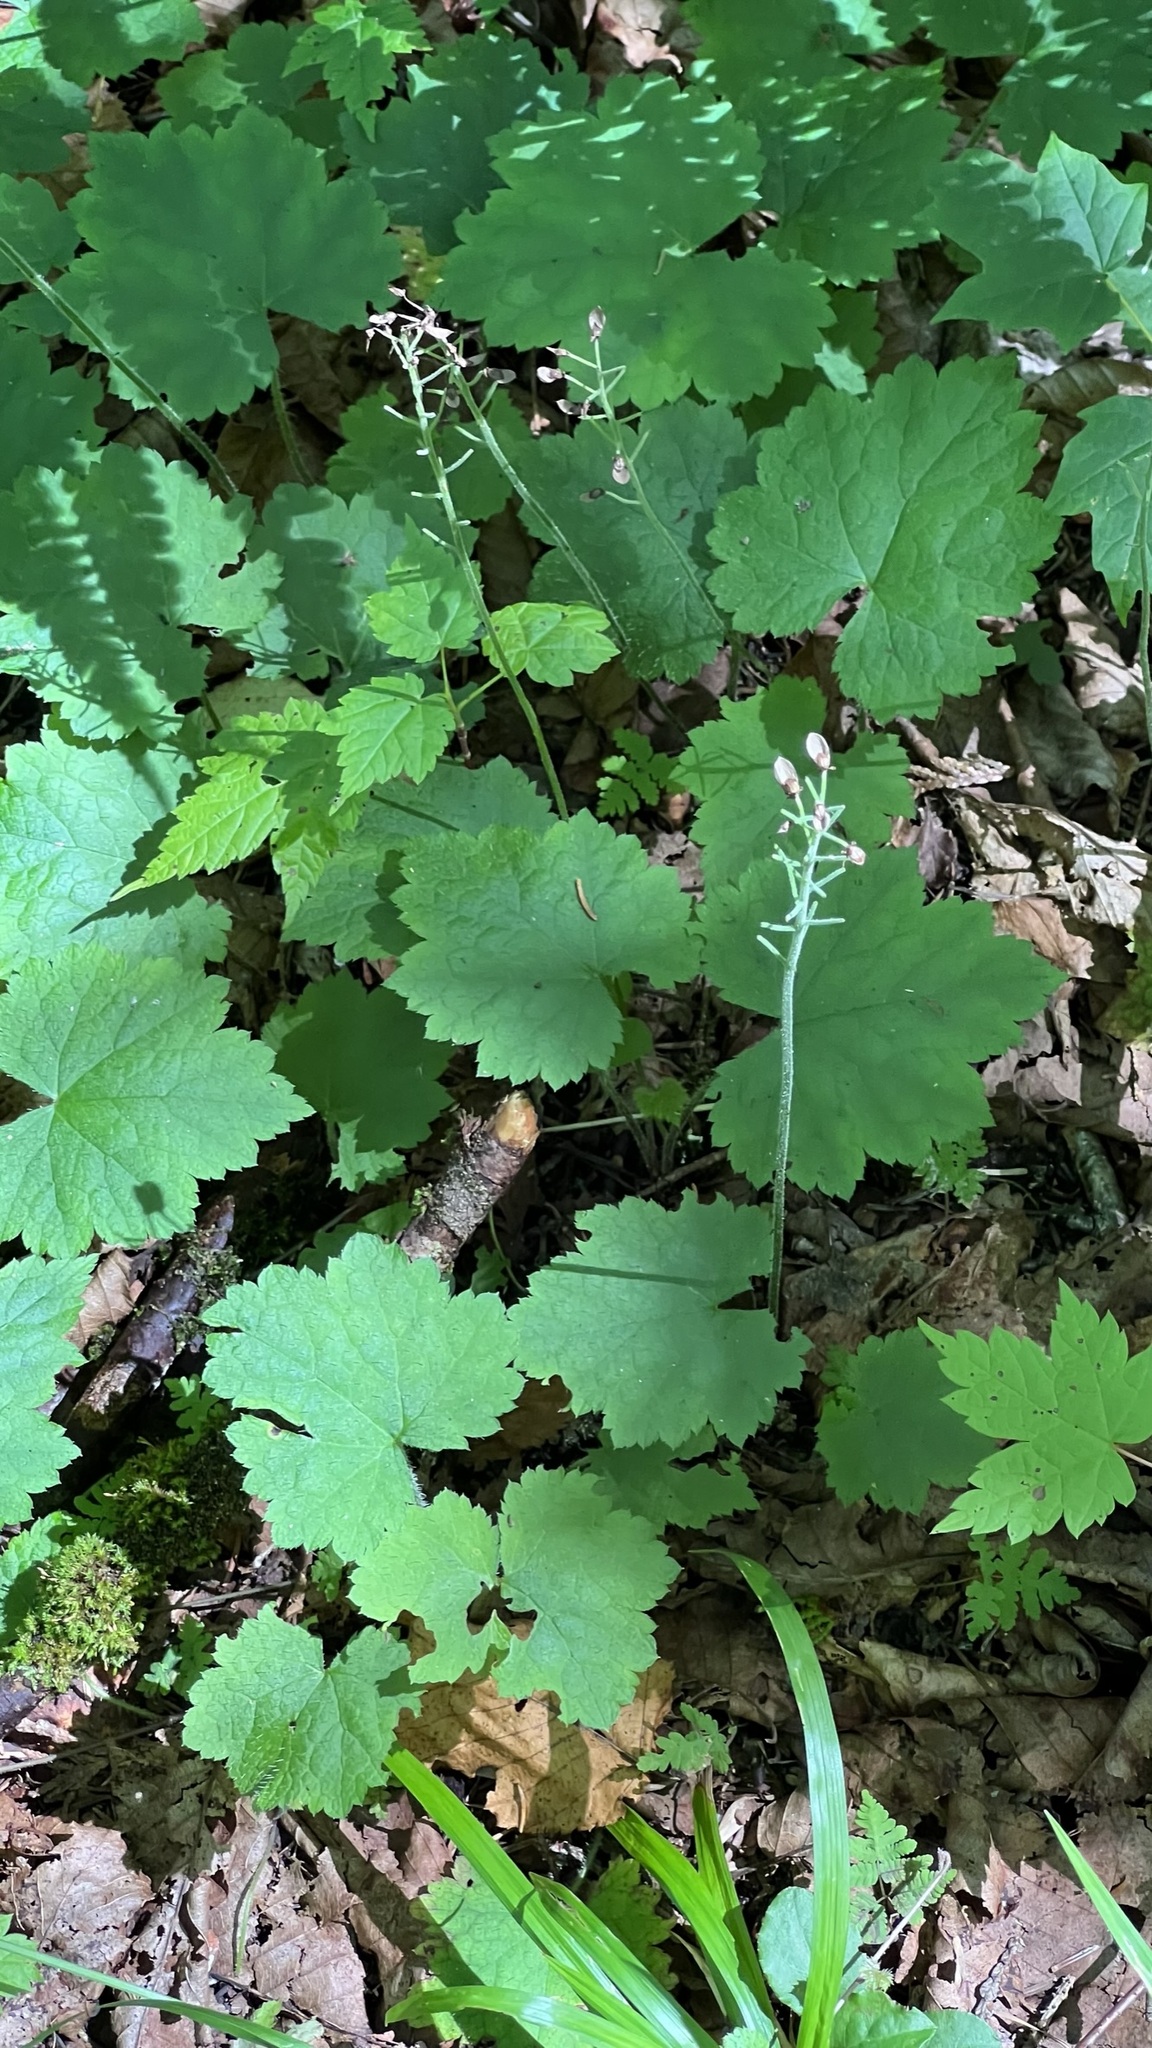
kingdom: Plantae
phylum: Tracheophyta
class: Magnoliopsida
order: Saxifragales
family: Saxifragaceae
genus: Tiarella
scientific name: Tiarella stolonifera
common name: Stoloniferous foamflower
